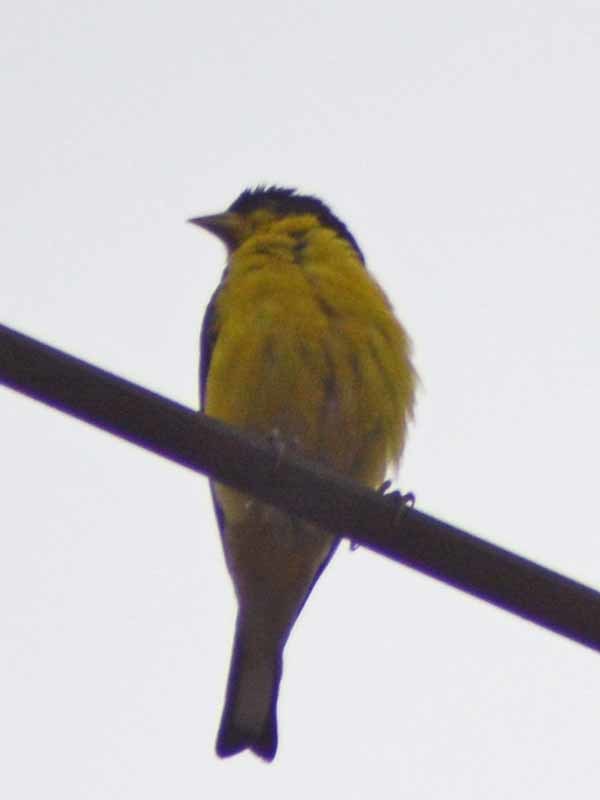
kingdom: Animalia
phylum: Chordata
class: Aves
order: Passeriformes
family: Fringillidae
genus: Spinus
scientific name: Spinus psaltria
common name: Lesser goldfinch
